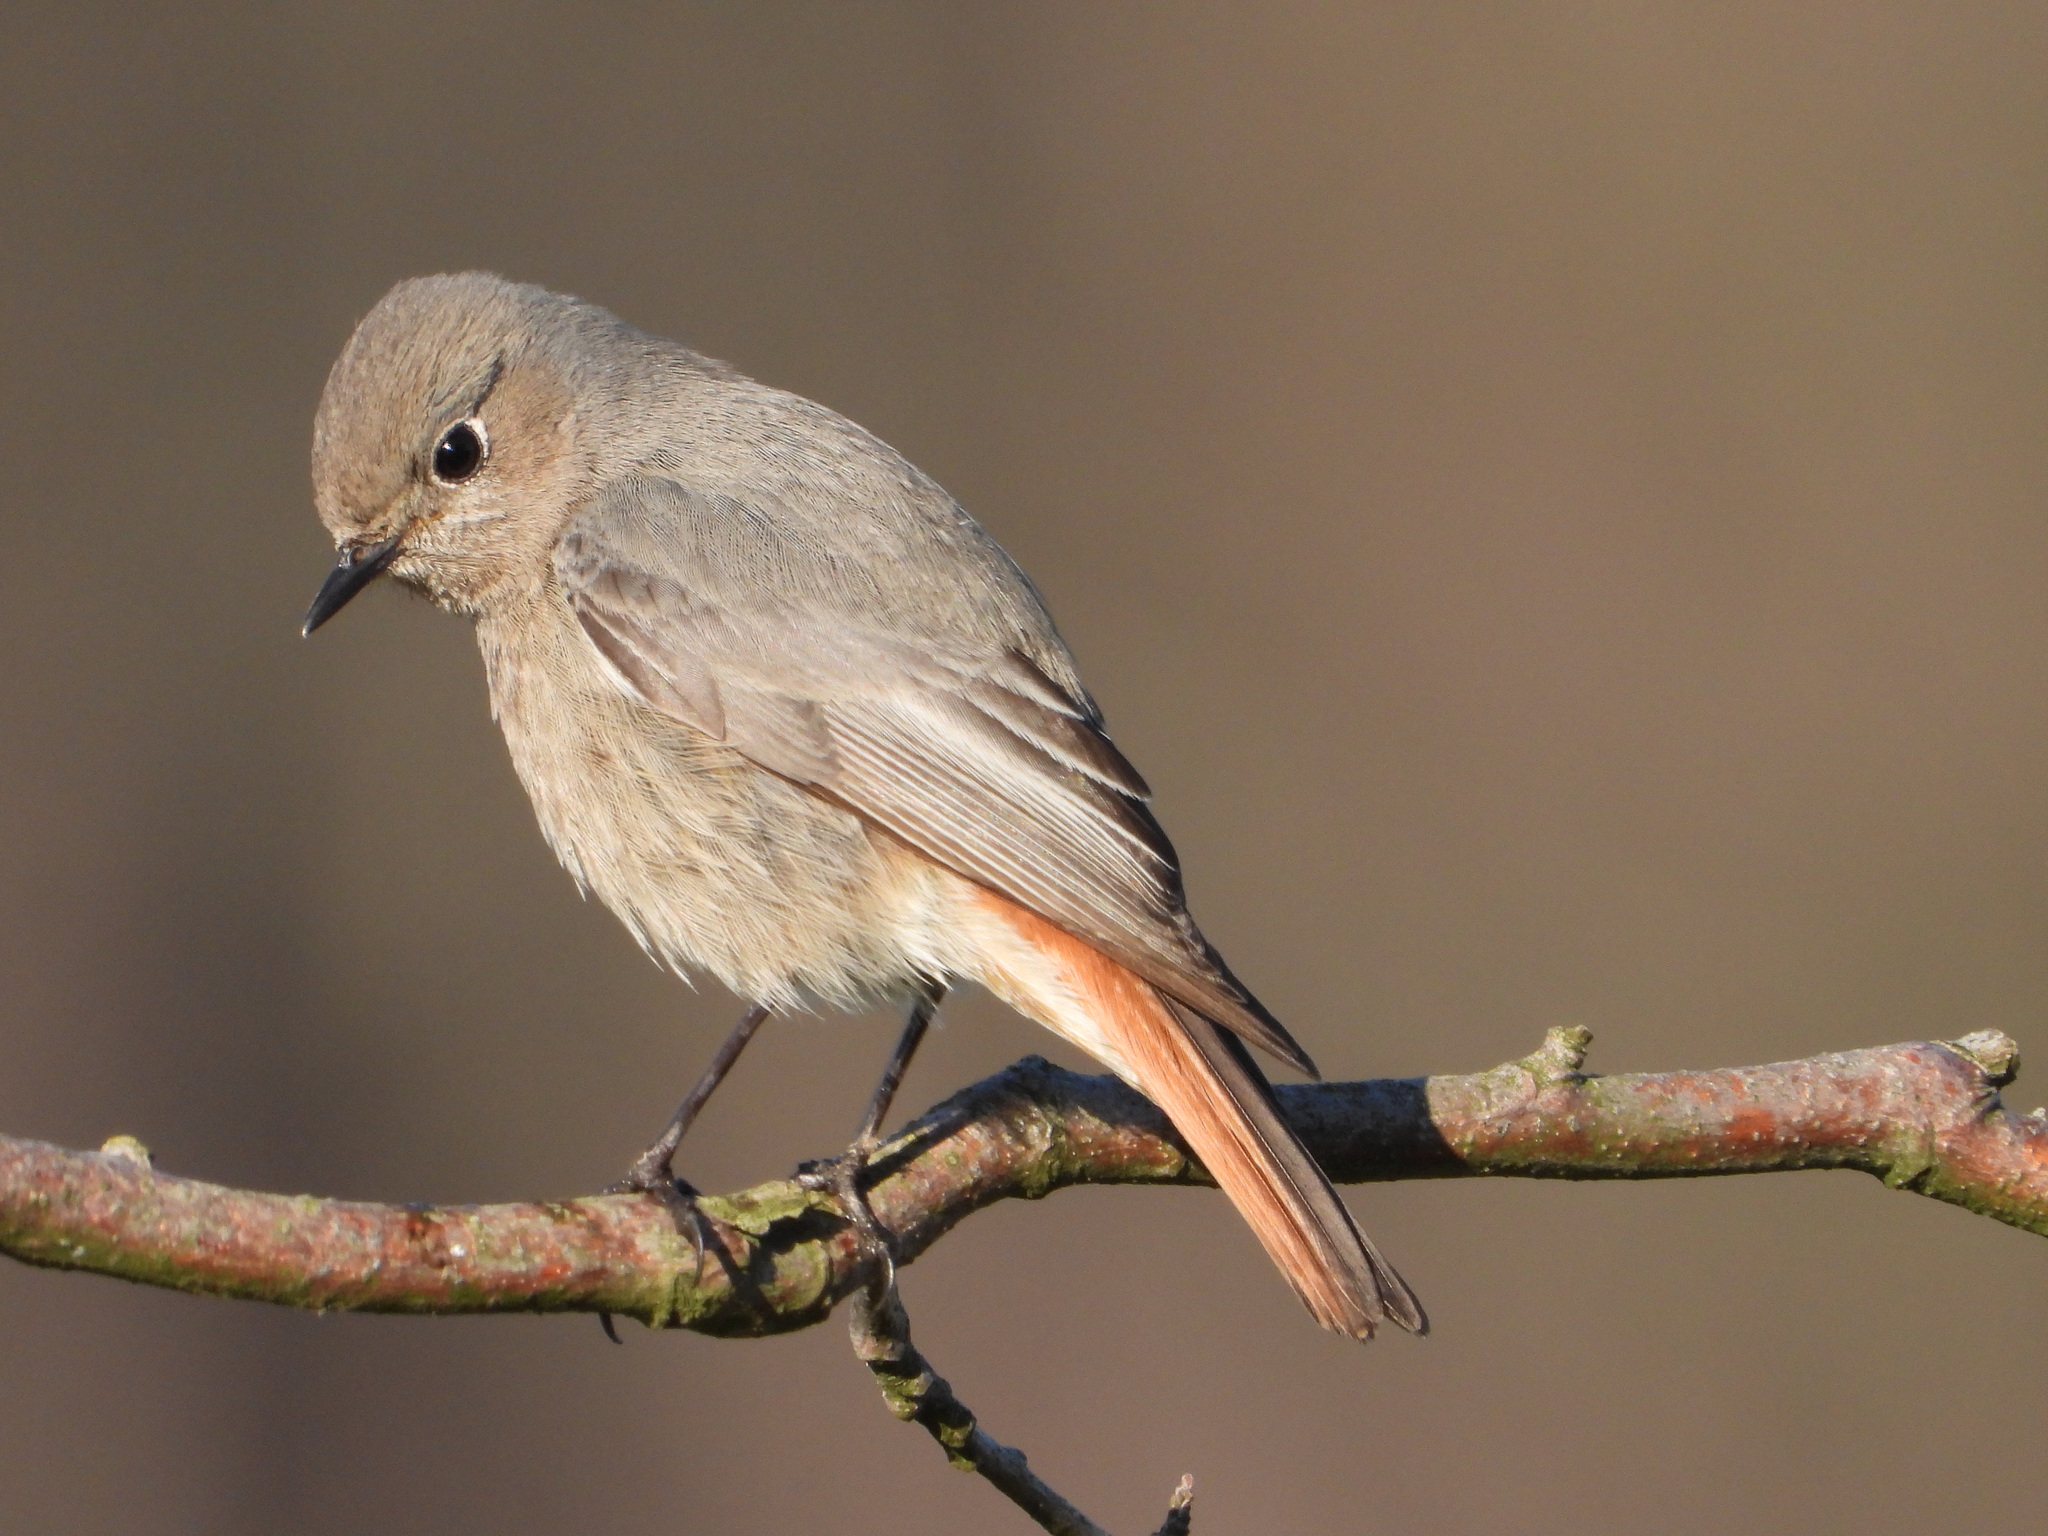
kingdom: Animalia
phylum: Chordata
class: Aves
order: Passeriformes
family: Muscicapidae
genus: Phoenicurus
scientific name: Phoenicurus ochruros
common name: Black redstart
